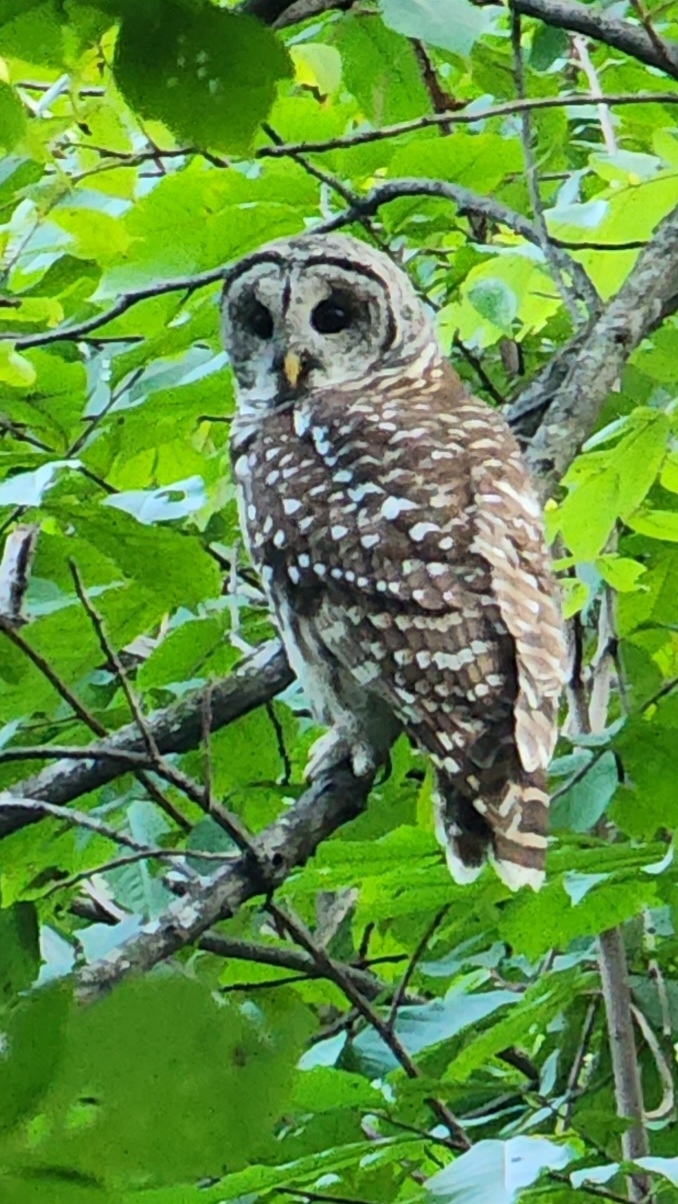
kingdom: Animalia
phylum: Chordata
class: Aves
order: Strigiformes
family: Strigidae
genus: Strix
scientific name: Strix varia
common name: Barred owl
